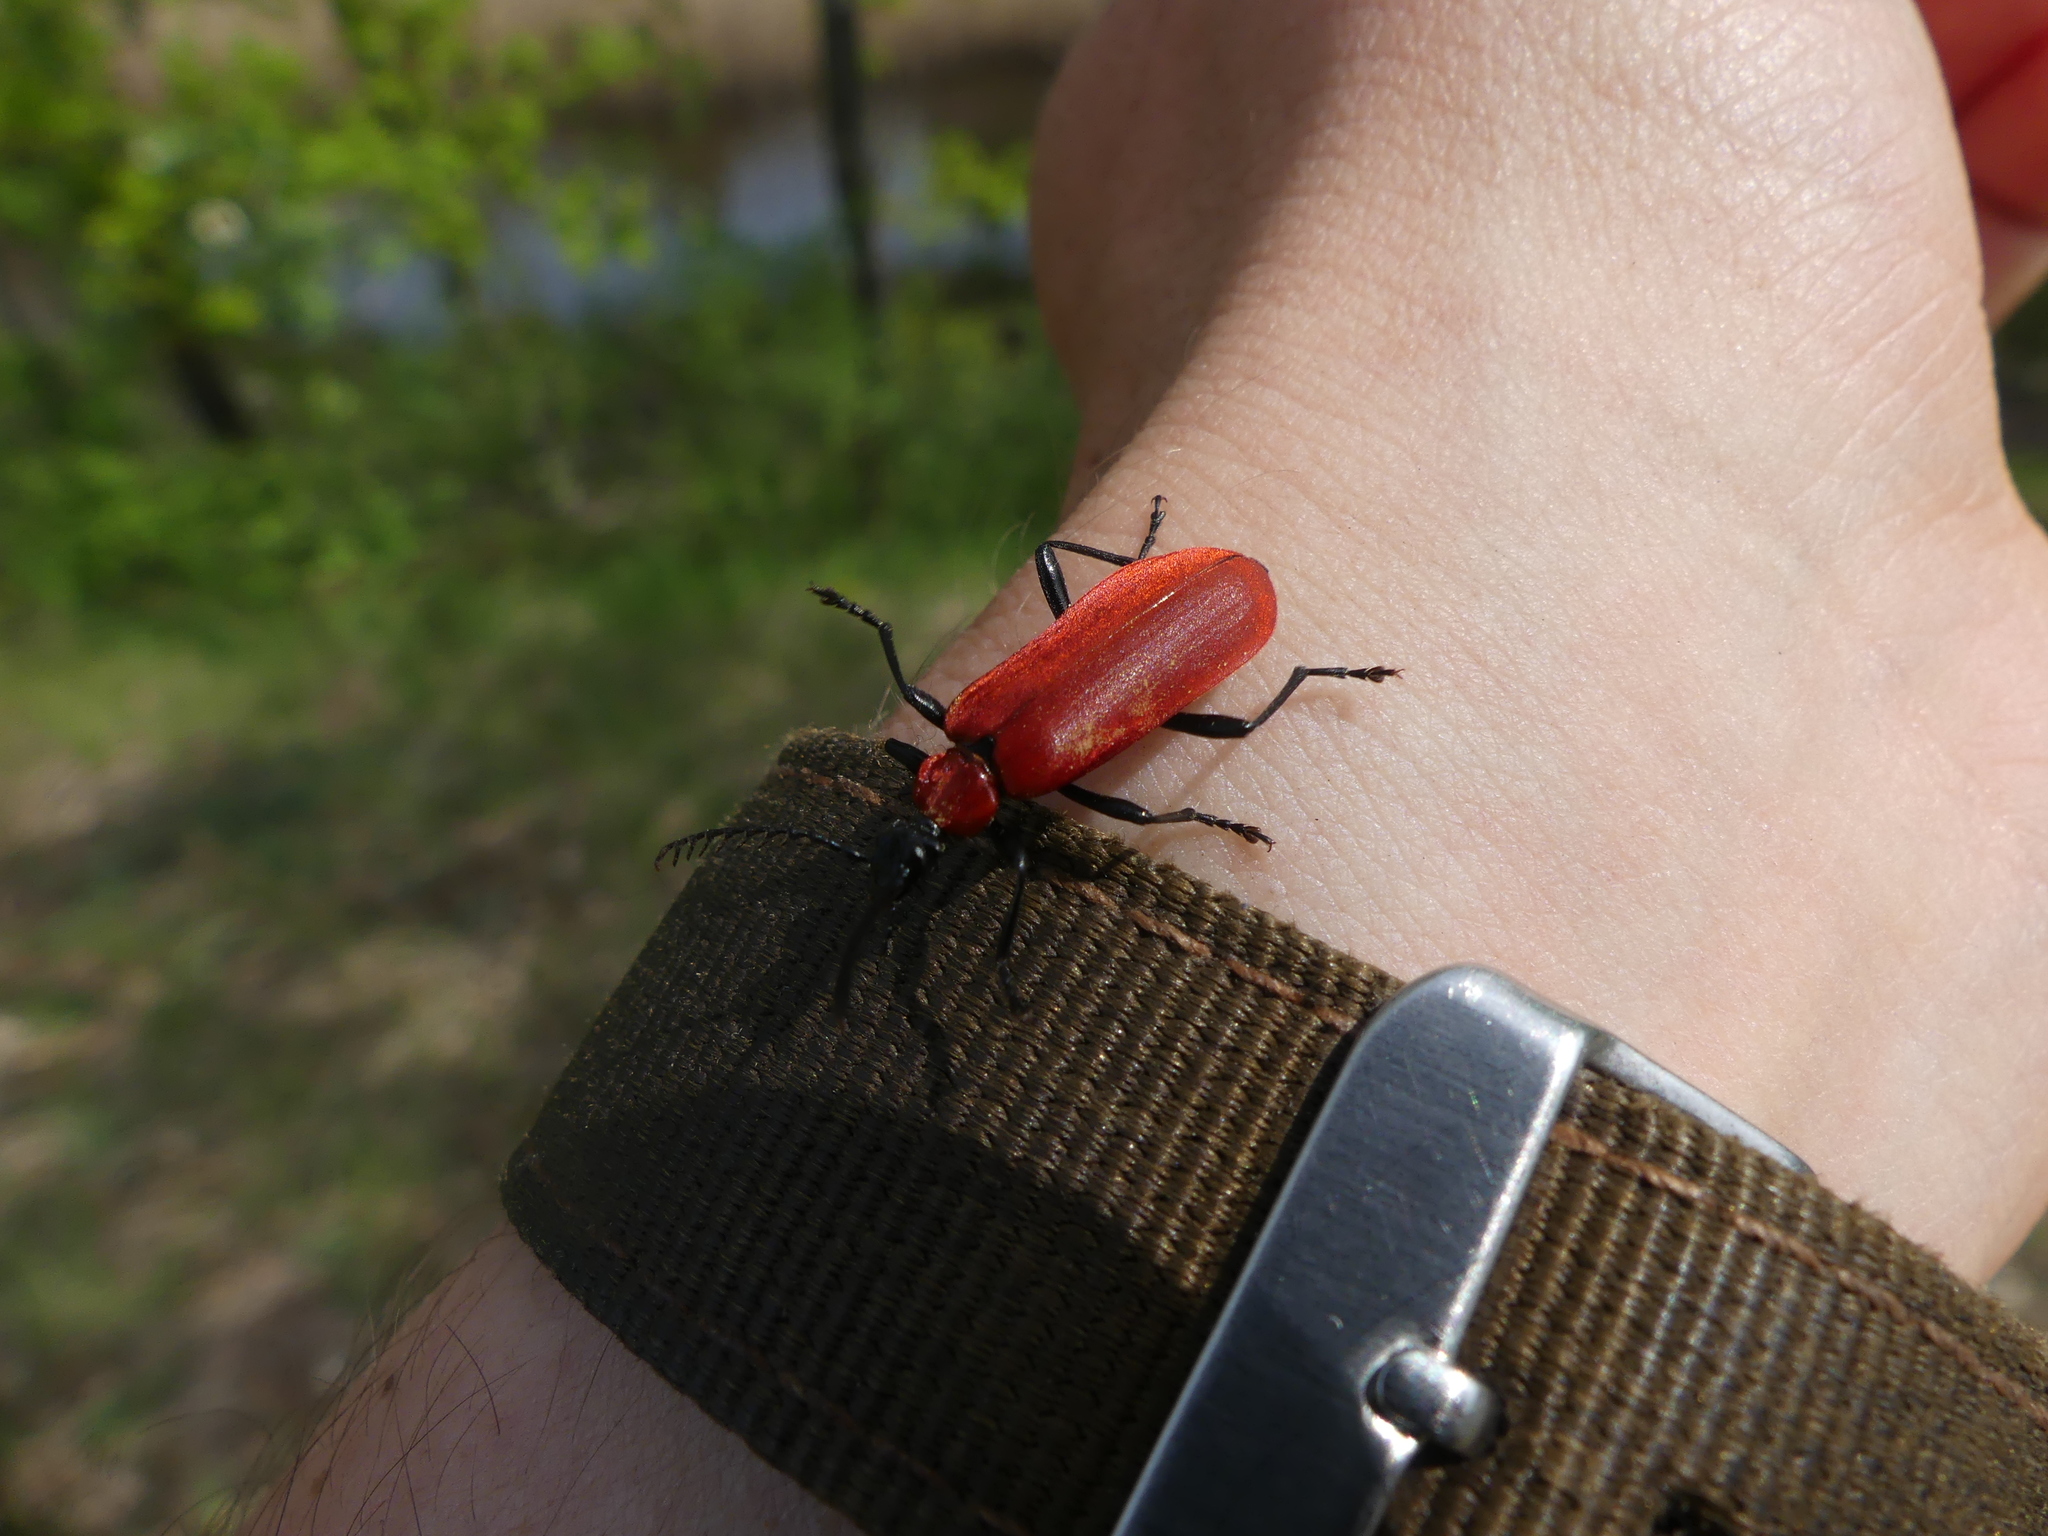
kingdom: Animalia
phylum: Arthropoda
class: Insecta
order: Coleoptera
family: Pyrochroidae
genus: Pyrochroa
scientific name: Pyrochroa coccinea
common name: Black-headed cardinal beetle
